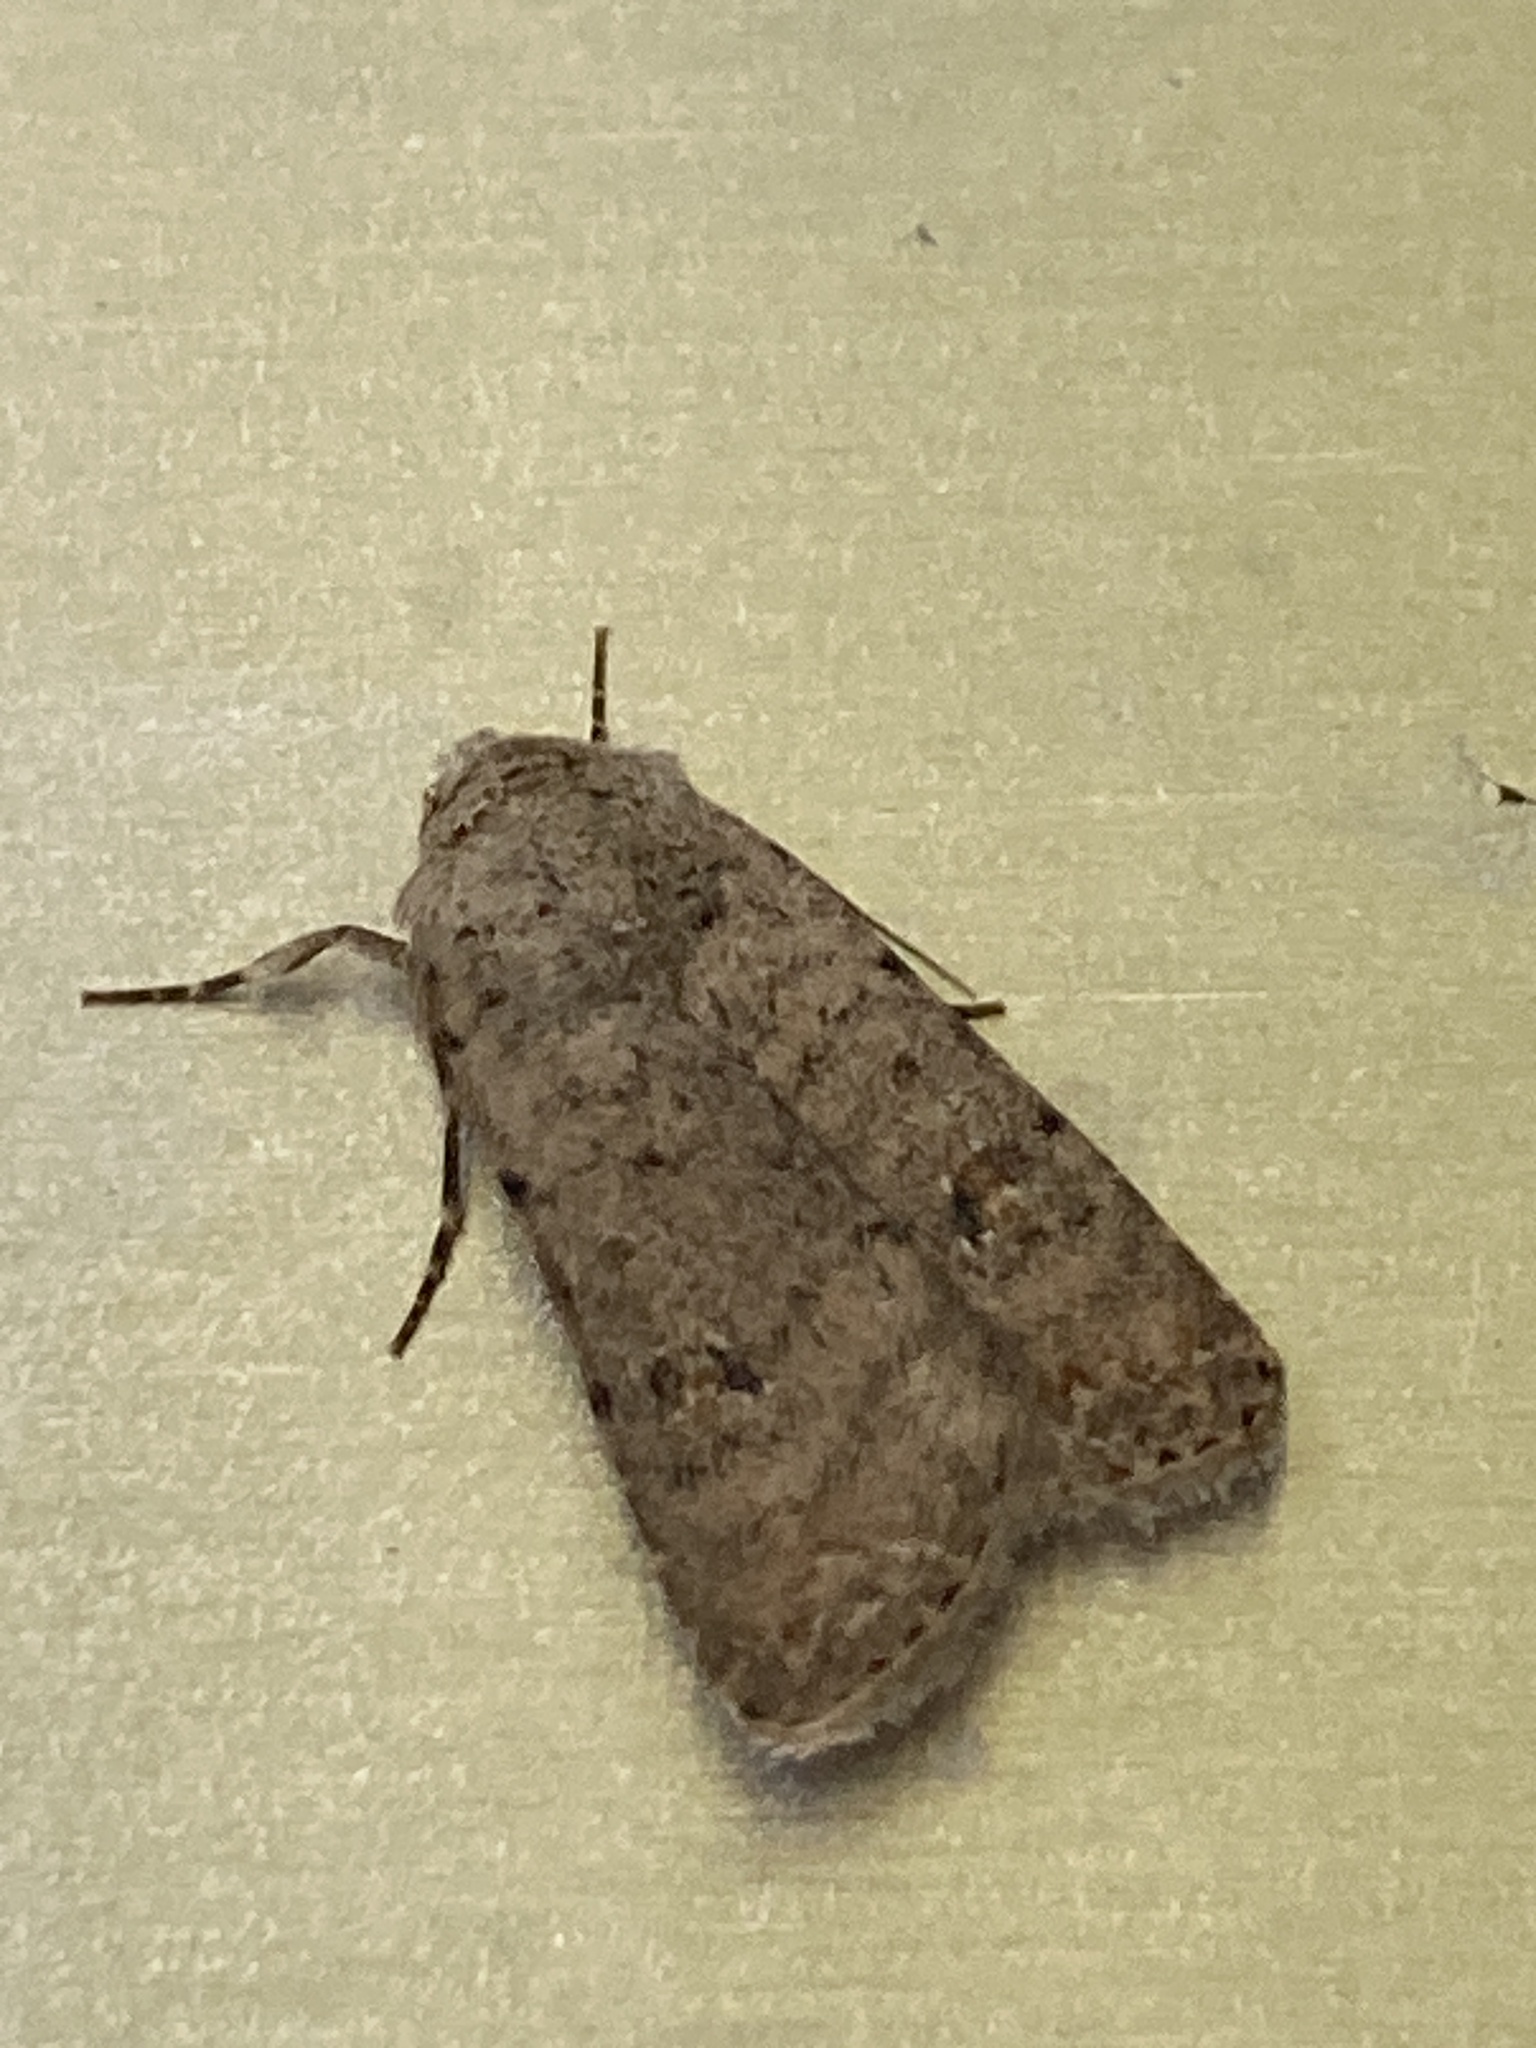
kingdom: Animalia
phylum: Arthropoda
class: Insecta
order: Lepidoptera
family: Noctuidae
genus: Caradrina
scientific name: Caradrina clavipalpis
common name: Pale mottled willow
